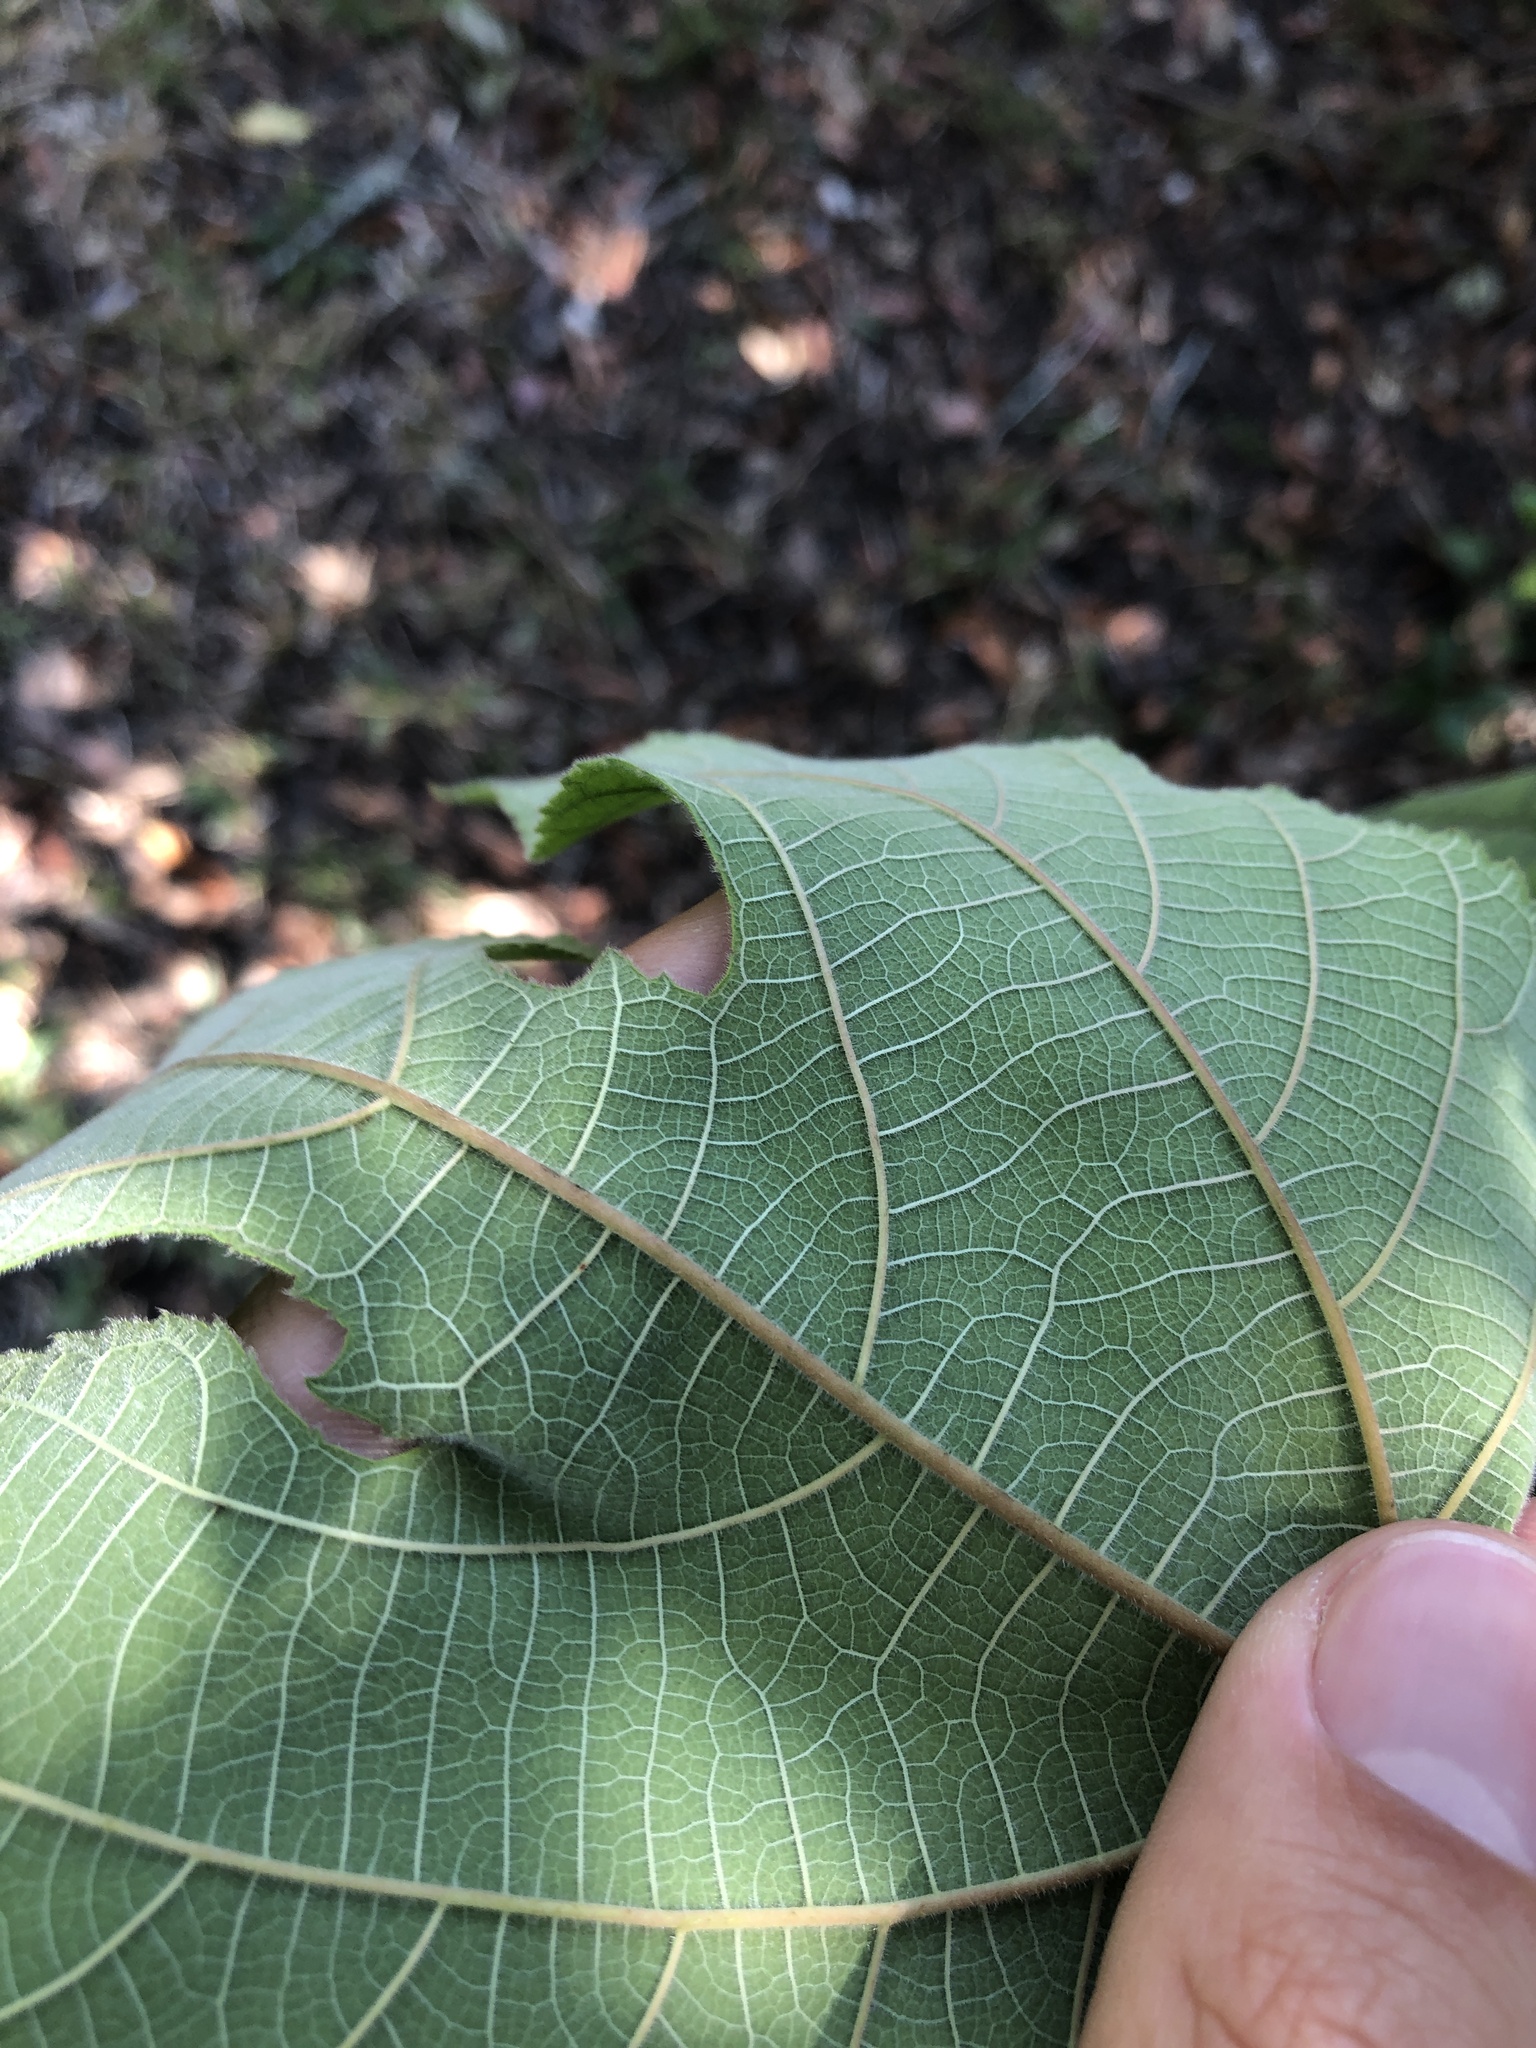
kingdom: Plantae
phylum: Tracheophyta
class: Magnoliopsida
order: Rosales
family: Moraceae
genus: Broussonetia
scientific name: Broussonetia papyrifera
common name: Paper mulberry
